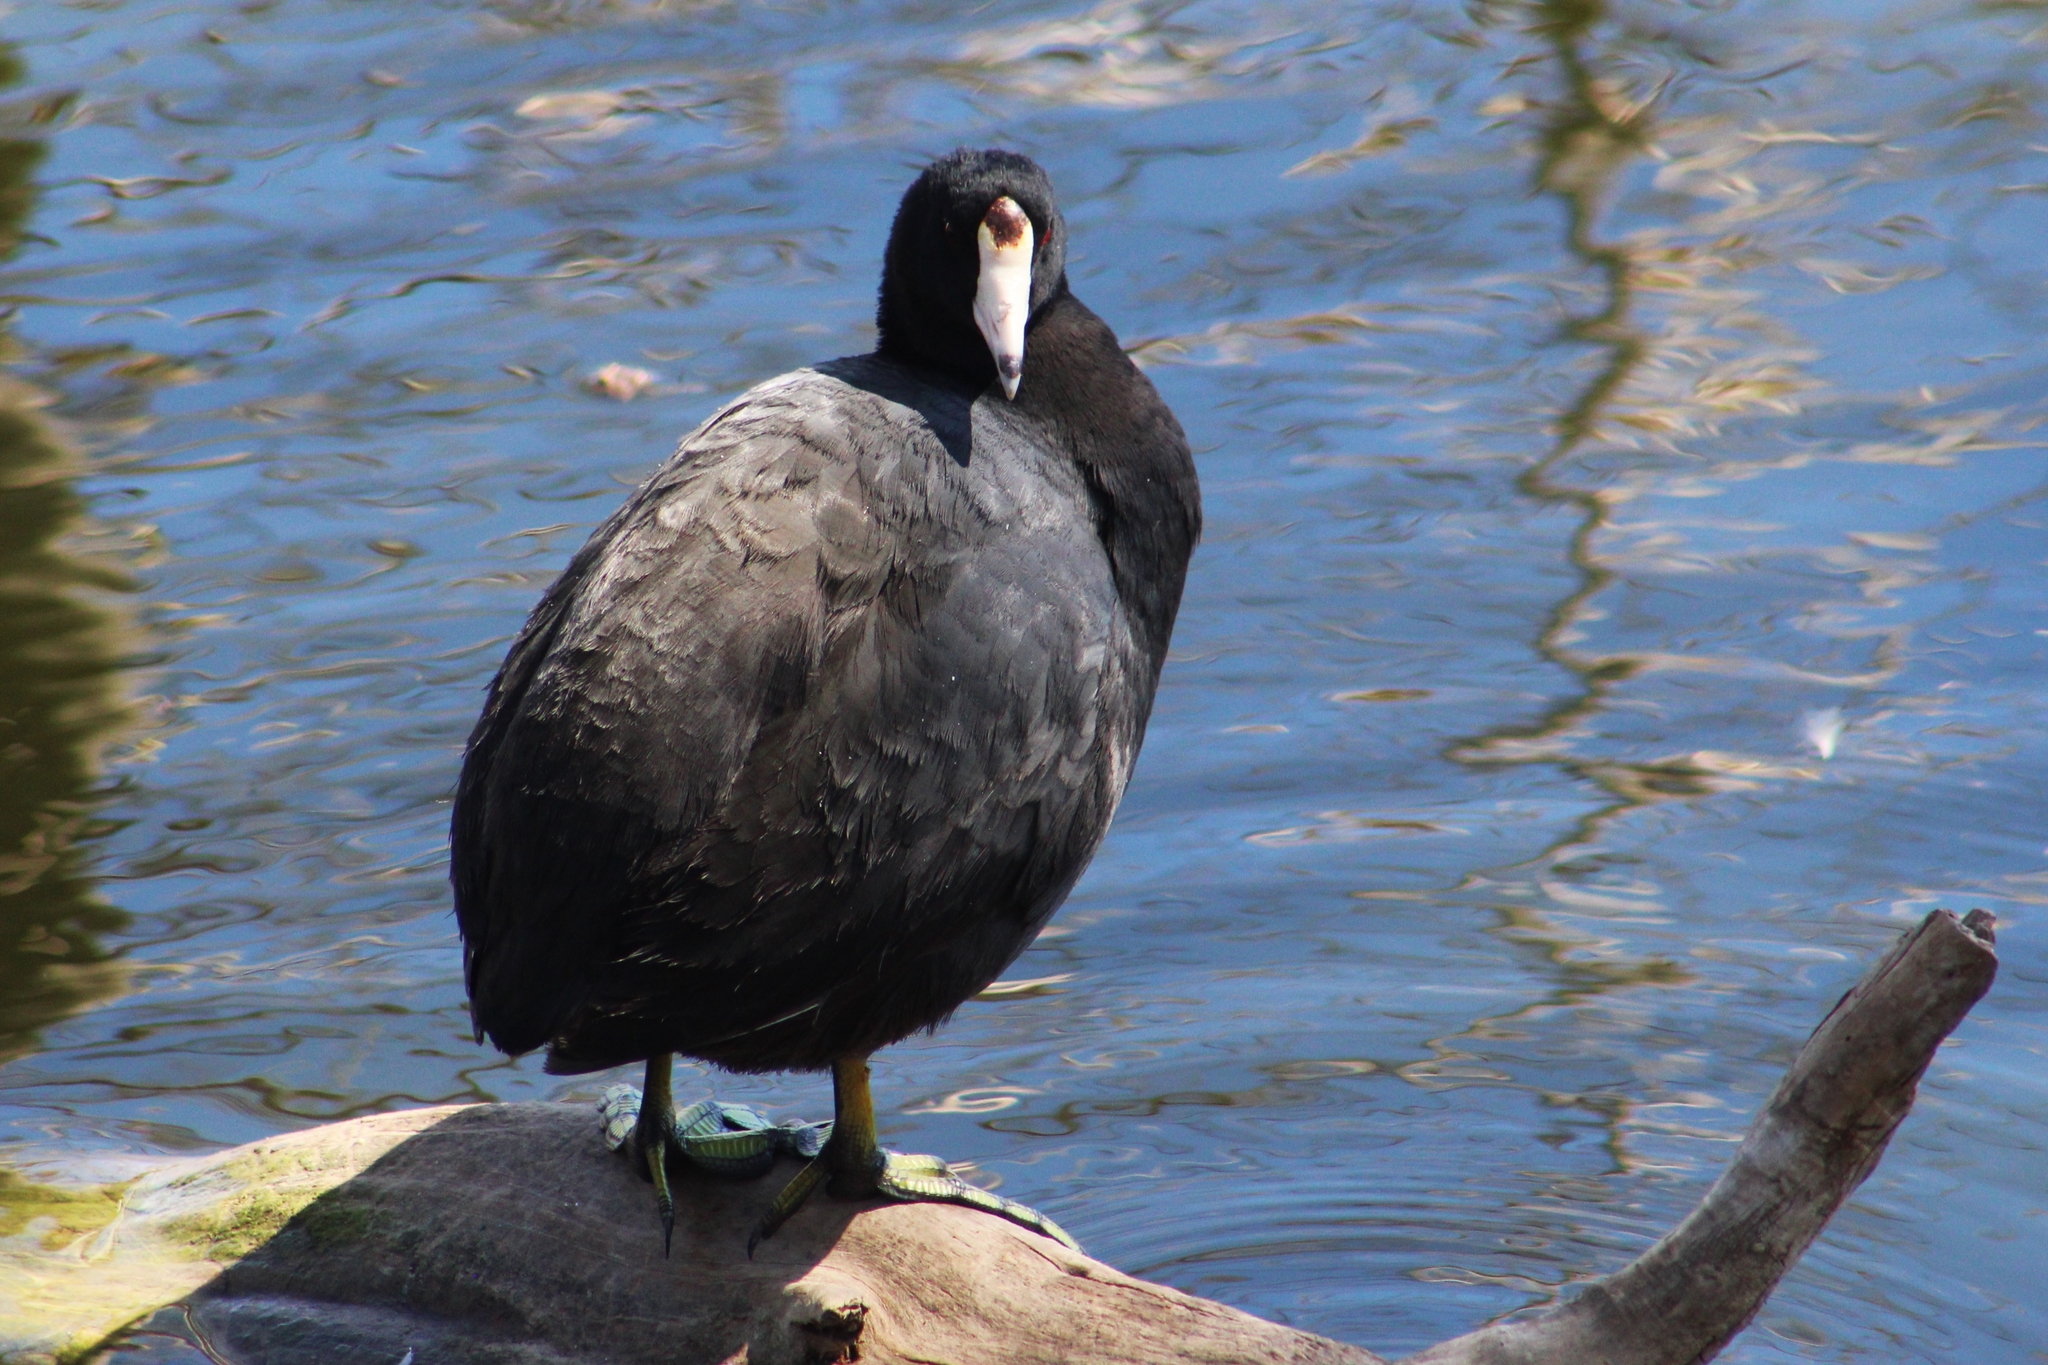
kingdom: Animalia
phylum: Chordata
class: Aves
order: Gruiformes
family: Rallidae
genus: Fulica
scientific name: Fulica americana
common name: American coot
